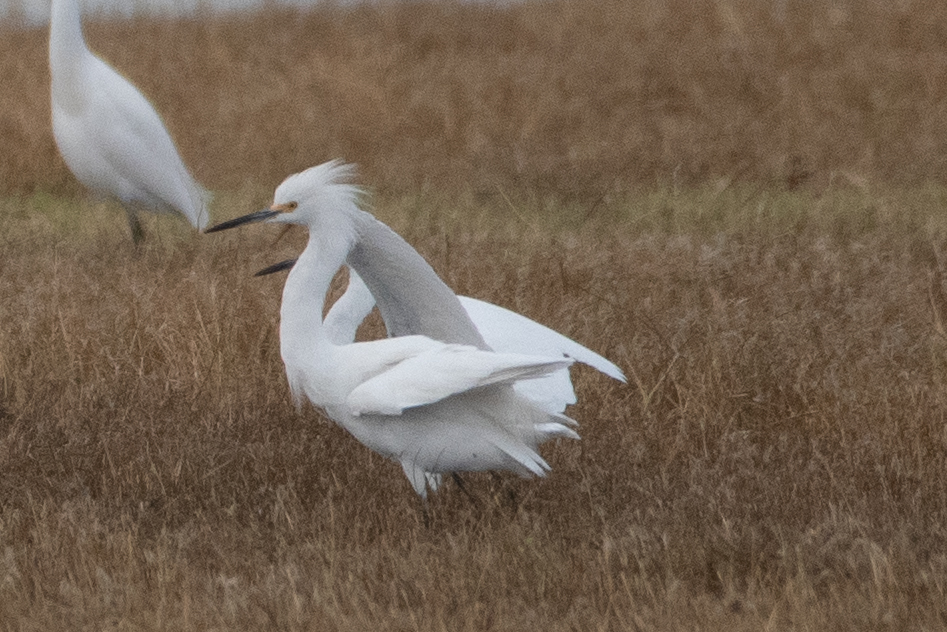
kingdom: Animalia
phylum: Chordata
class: Aves
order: Pelecaniformes
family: Ardeidae
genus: Egretta
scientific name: Egretta thula
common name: Snowy egret
